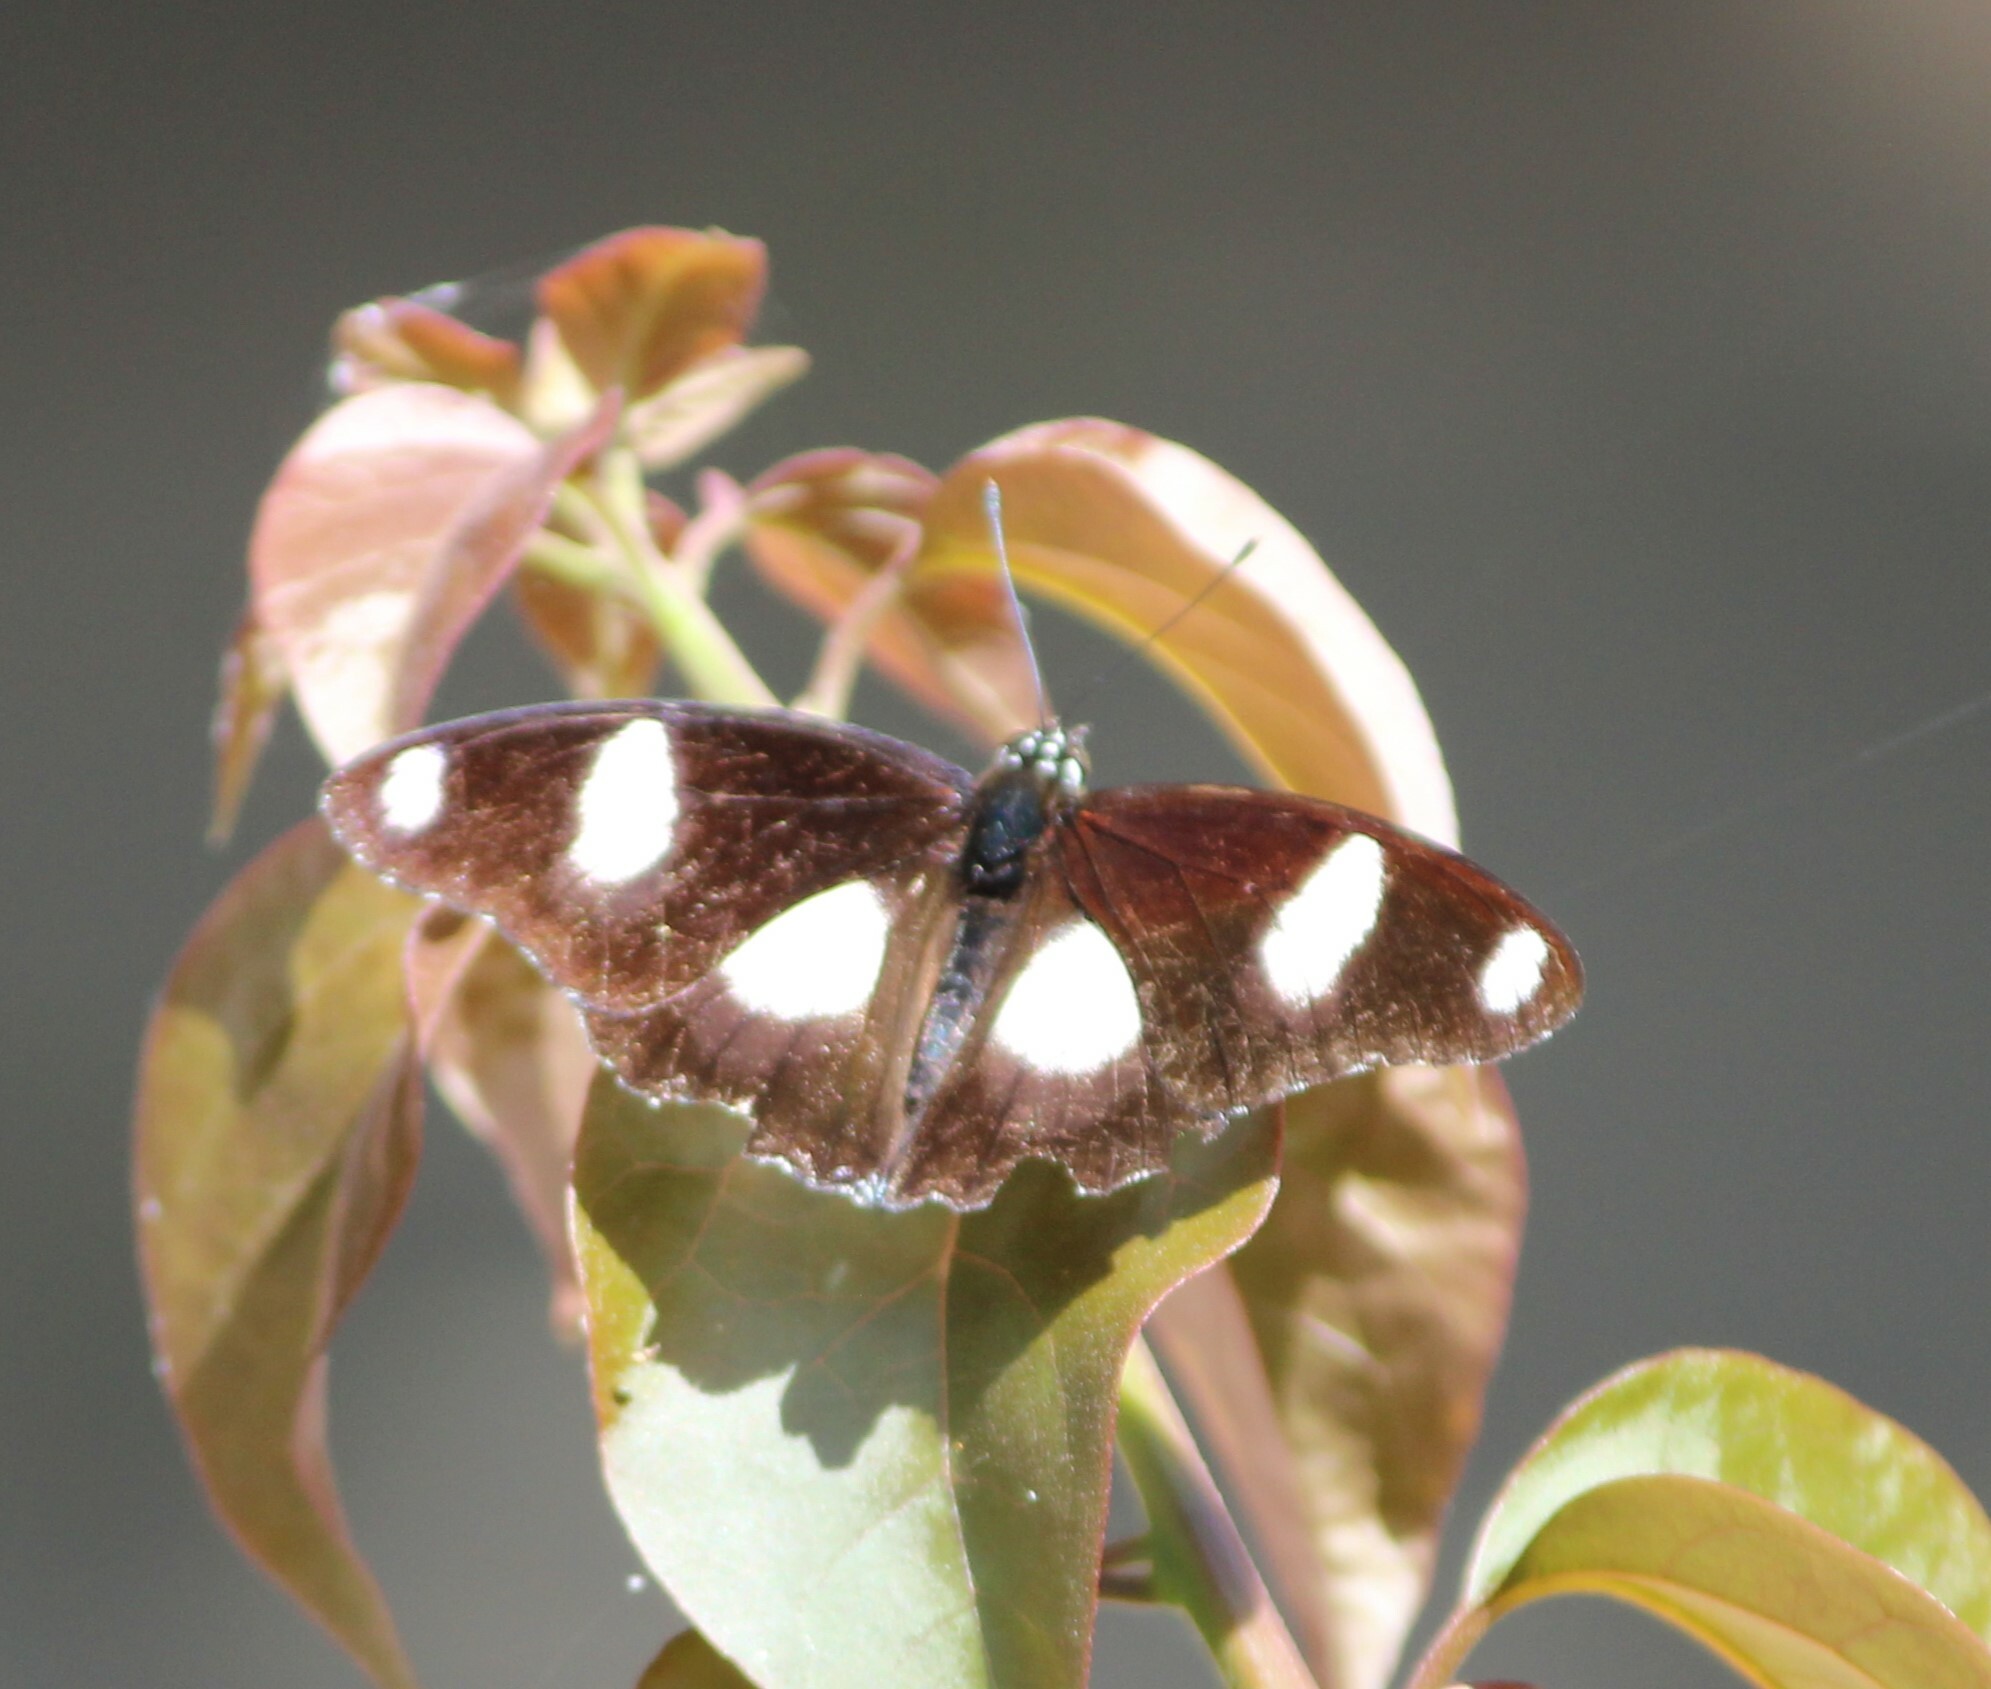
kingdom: Animalia
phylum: Arthropoda
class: Insecta
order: Lepidoptera
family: Nymphalidae
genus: Hypolimnas
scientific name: Hypolimnas misippus
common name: False plain tiger
